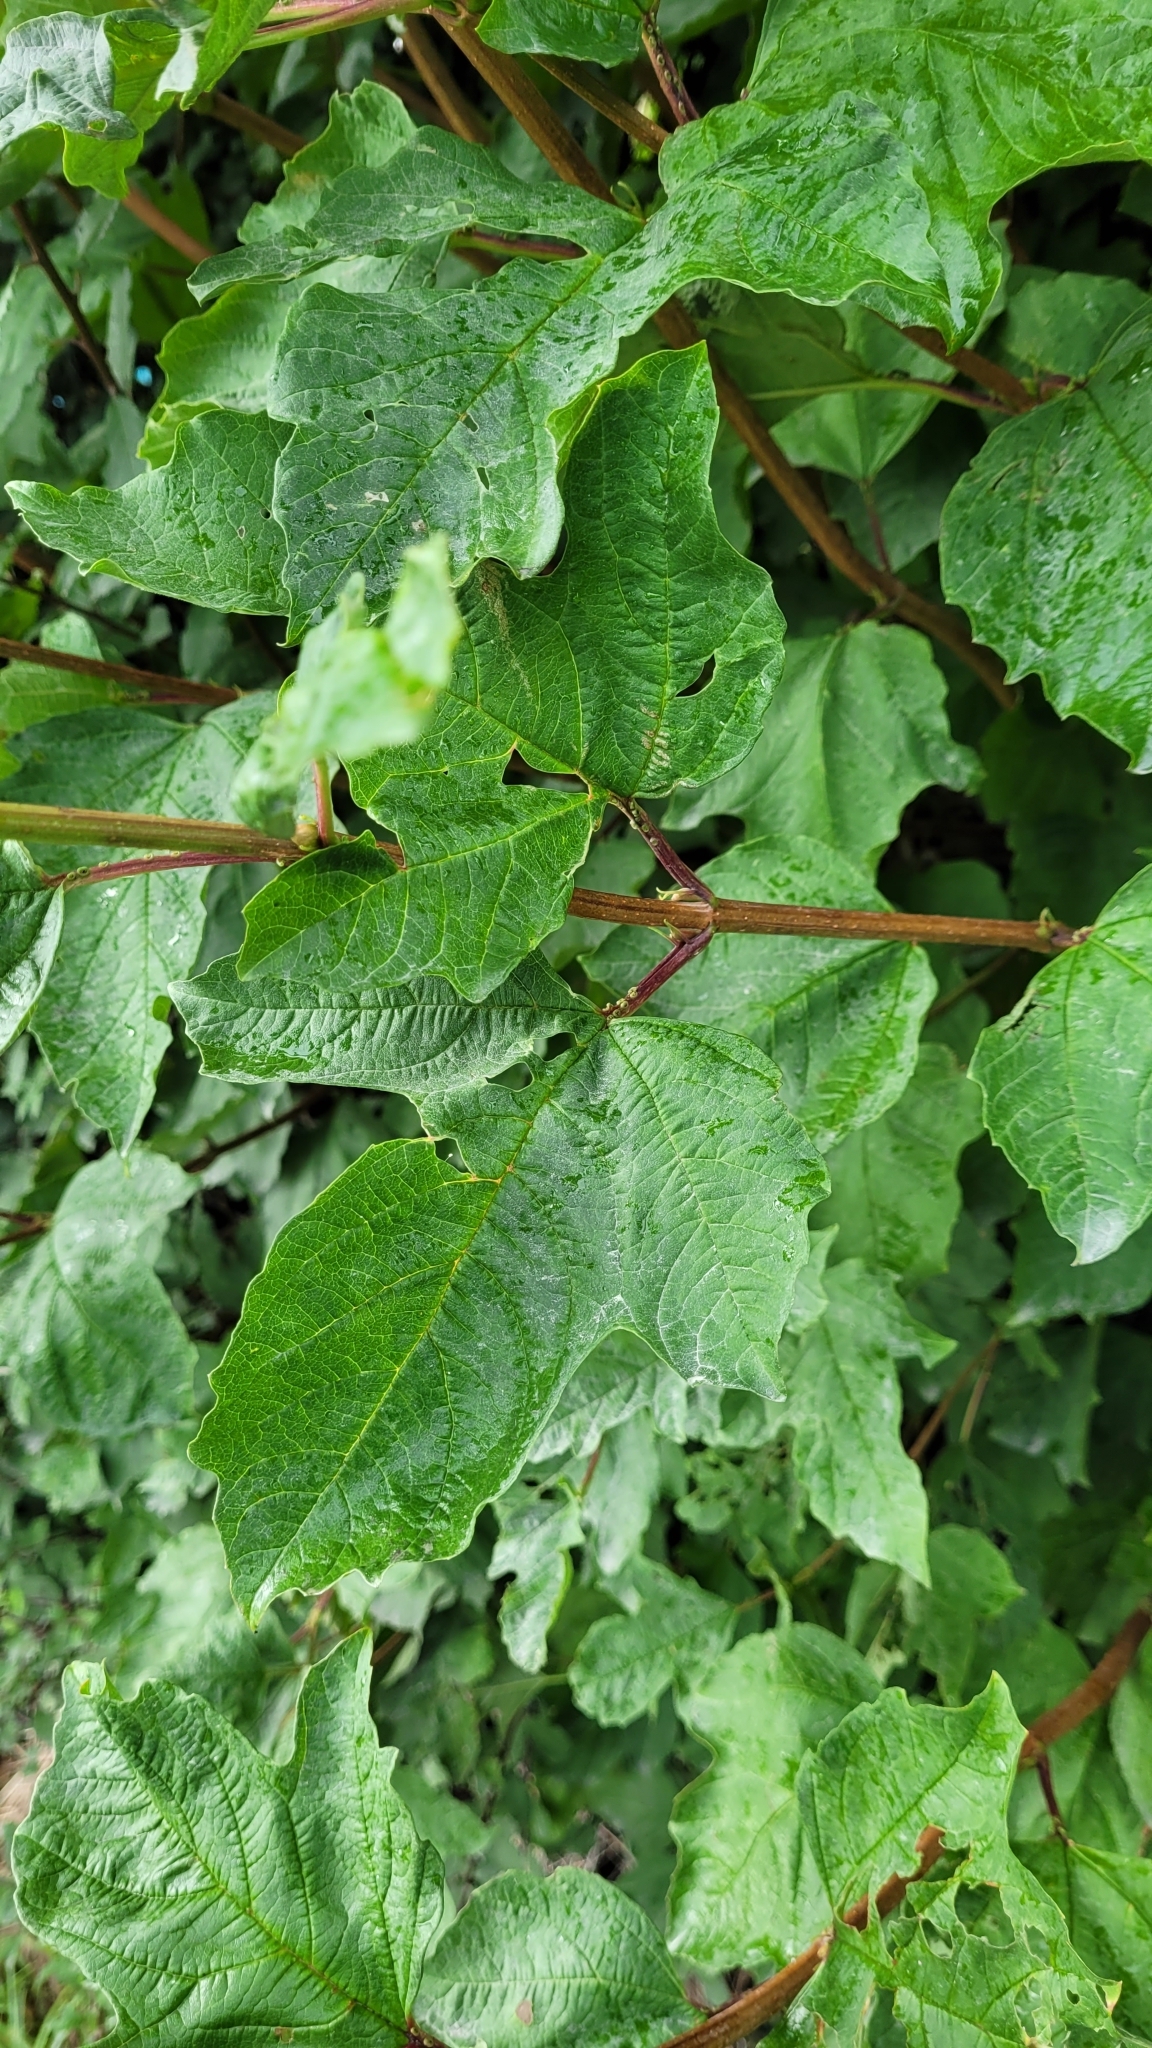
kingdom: Plantae
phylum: Tracheophyta
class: Magnoliopsida
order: Dipsacales
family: Viburnaceae
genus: Viburnum
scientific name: Viburnum opulus
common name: Guelder-rose
